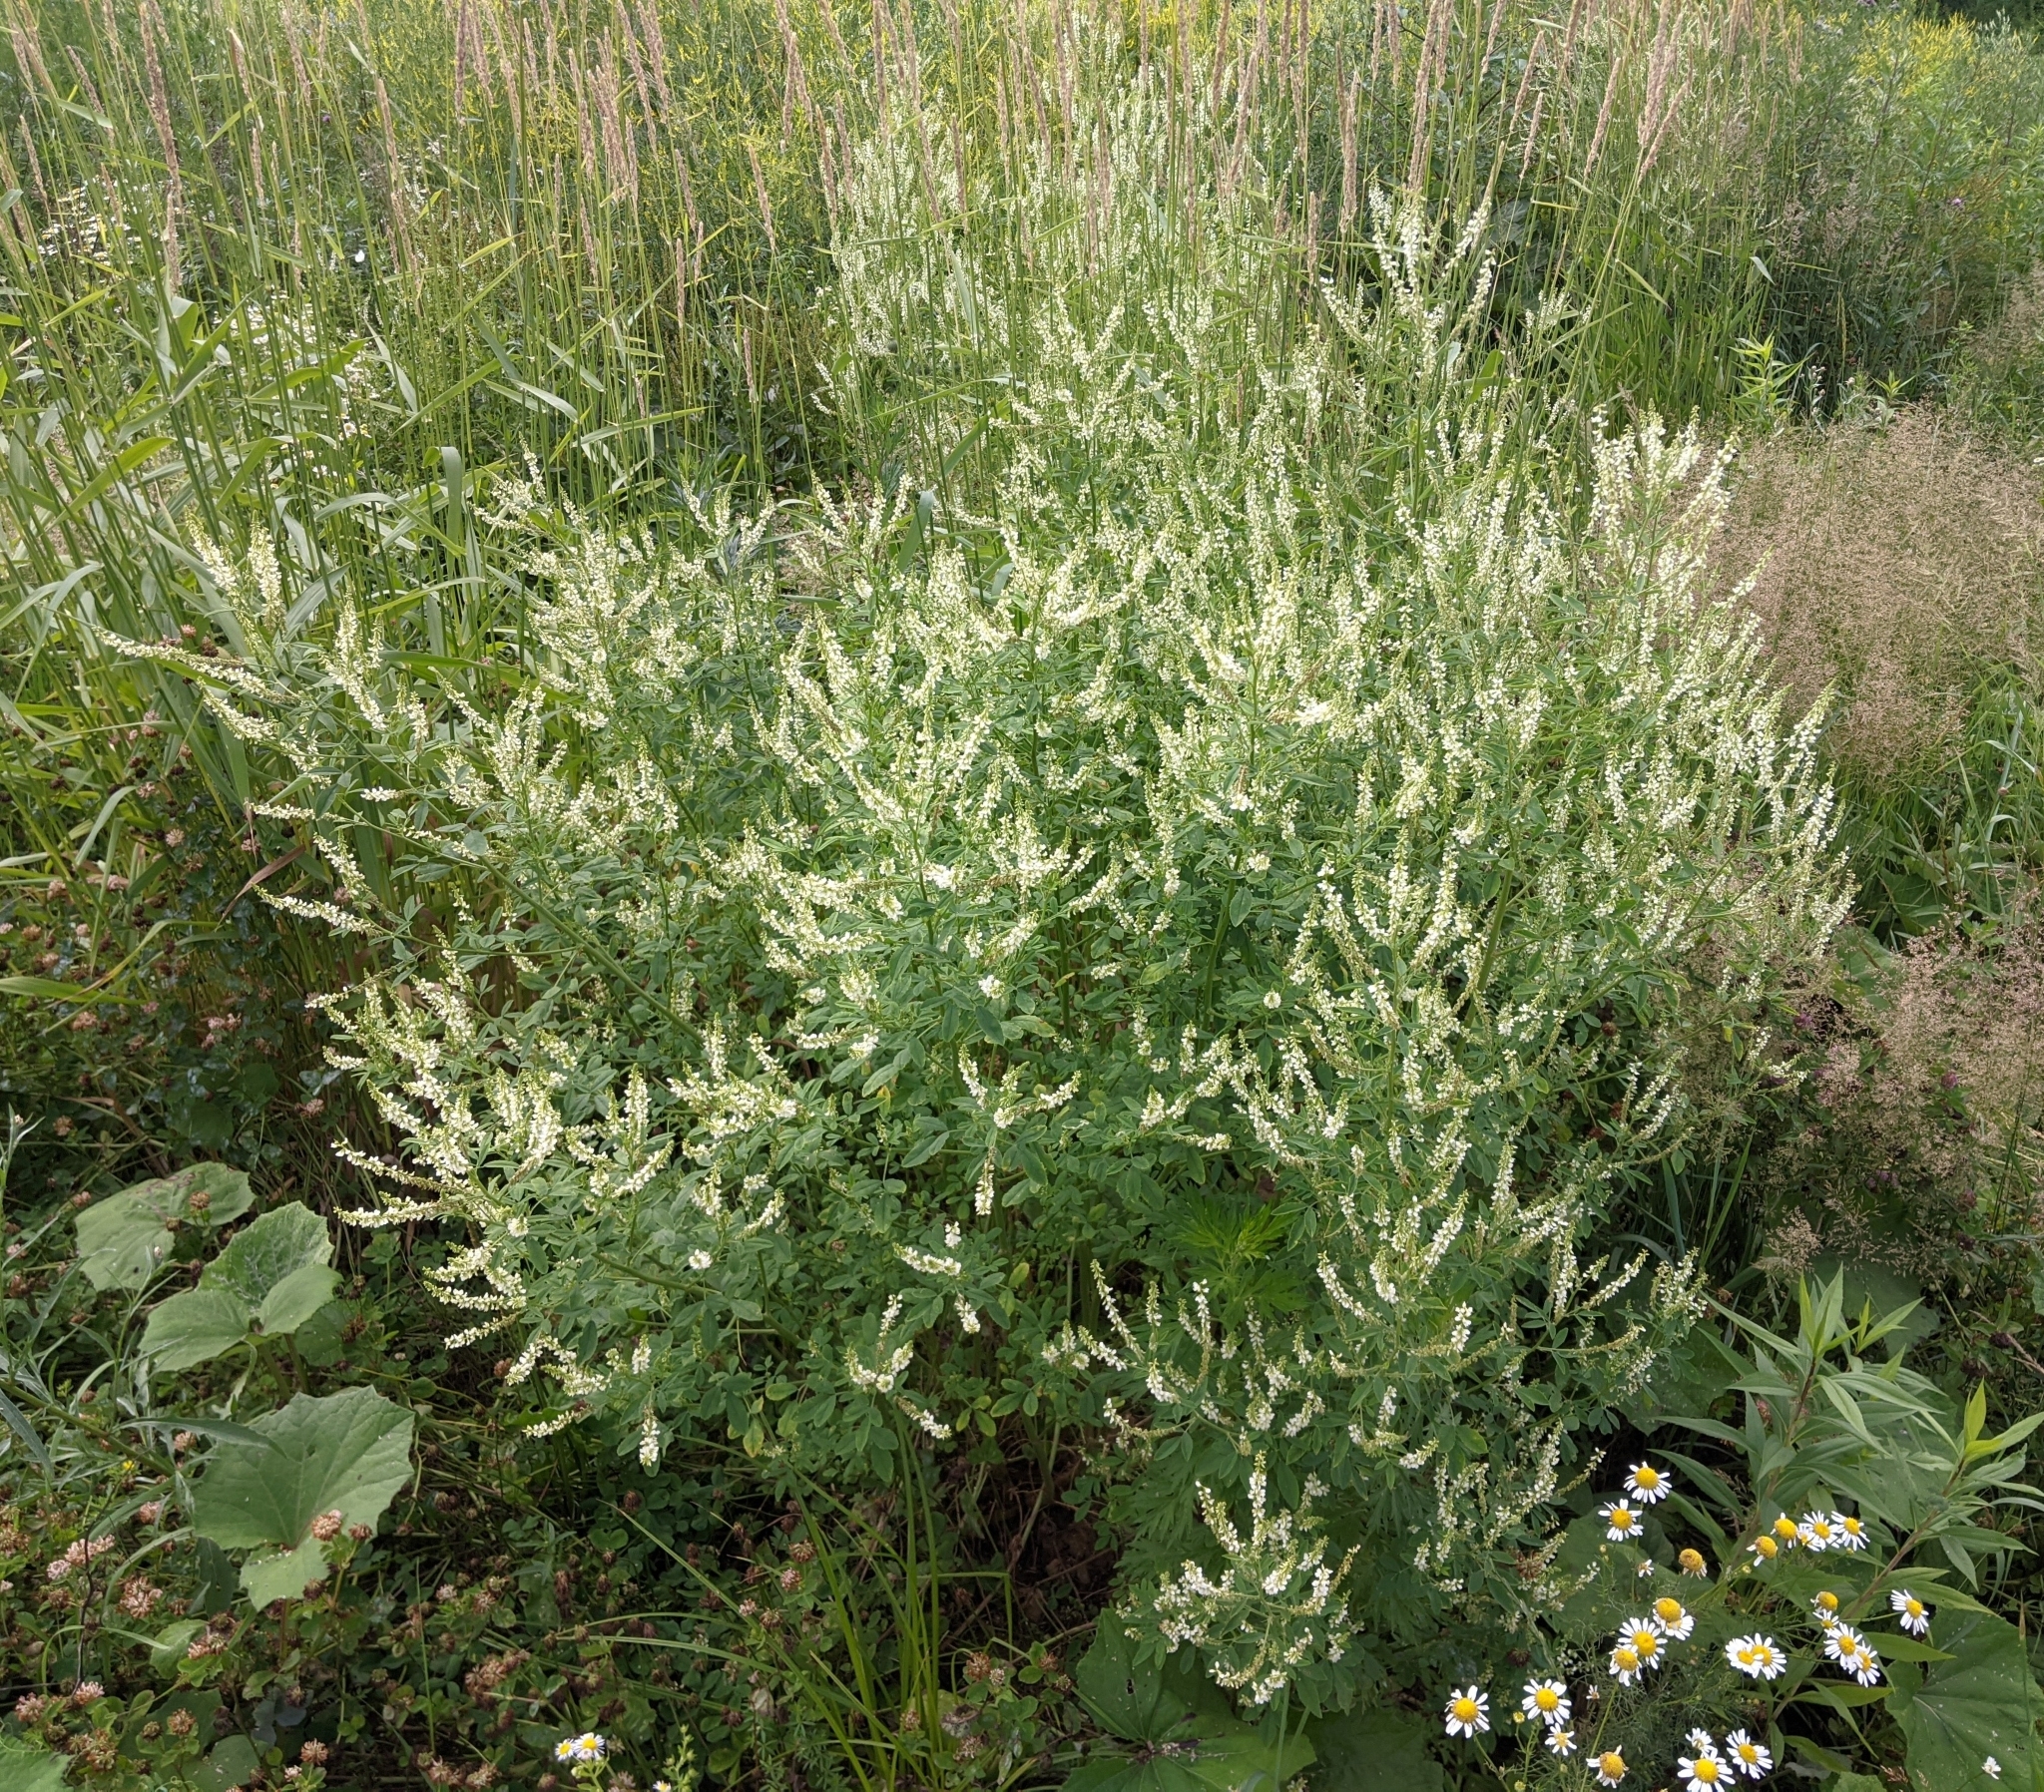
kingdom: Plantae
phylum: Tracheophyta
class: Magnoliopsida
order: Fabales
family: Fabaceae
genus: Melilotus
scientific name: Melilotus albus
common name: White melilot
